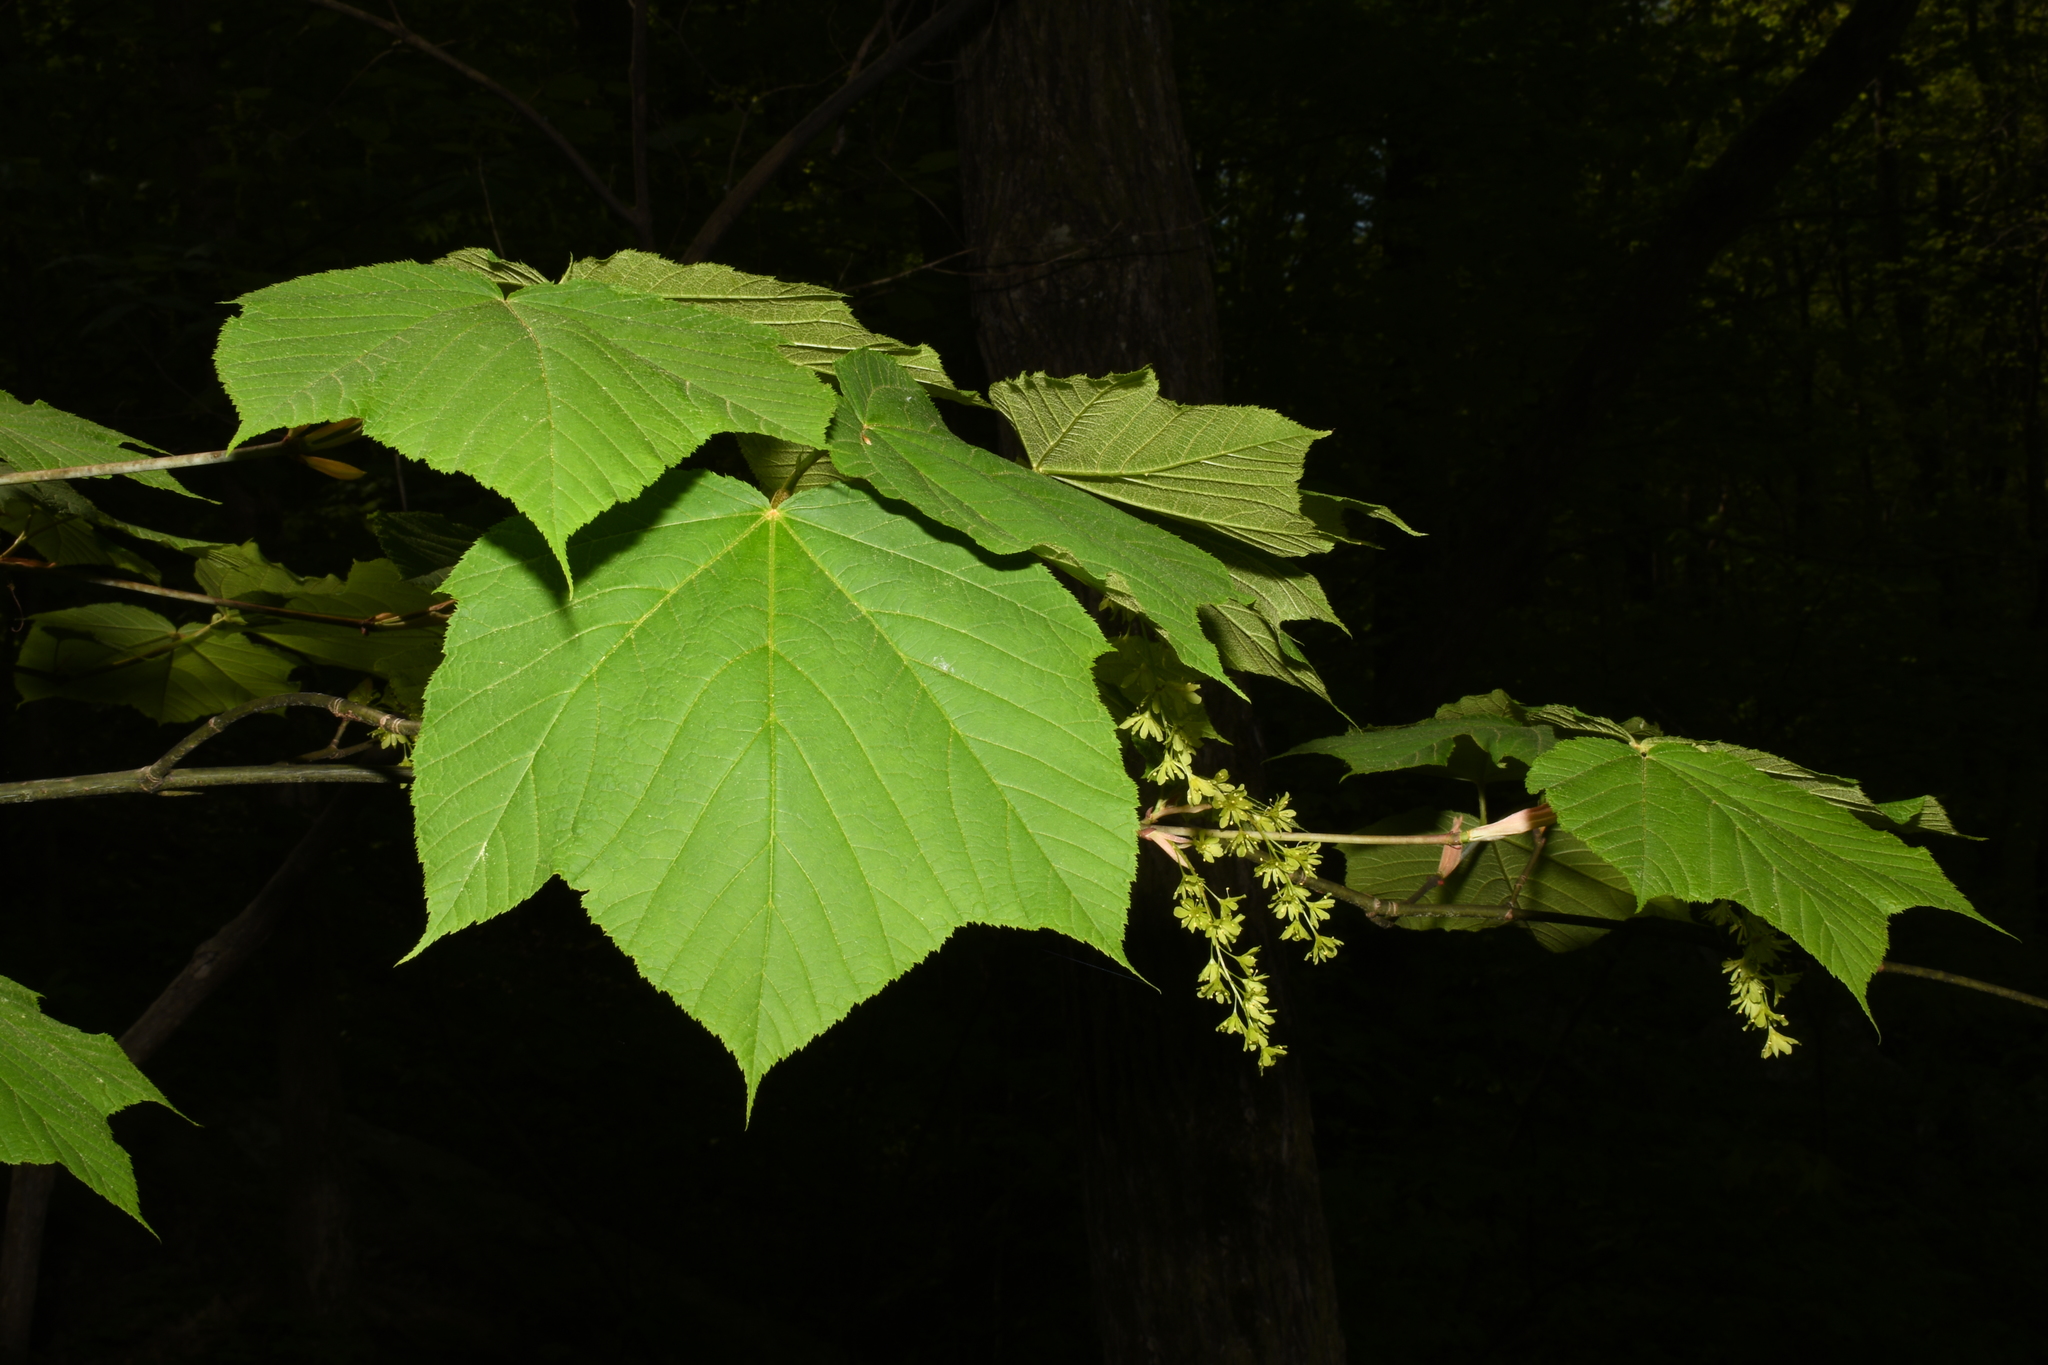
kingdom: Plantae
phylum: Tracheophyta
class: Magnoliopsida
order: Sapindales
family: Sapindaceae
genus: Acer
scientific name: Acer pensylvanicum
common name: Moosewood
